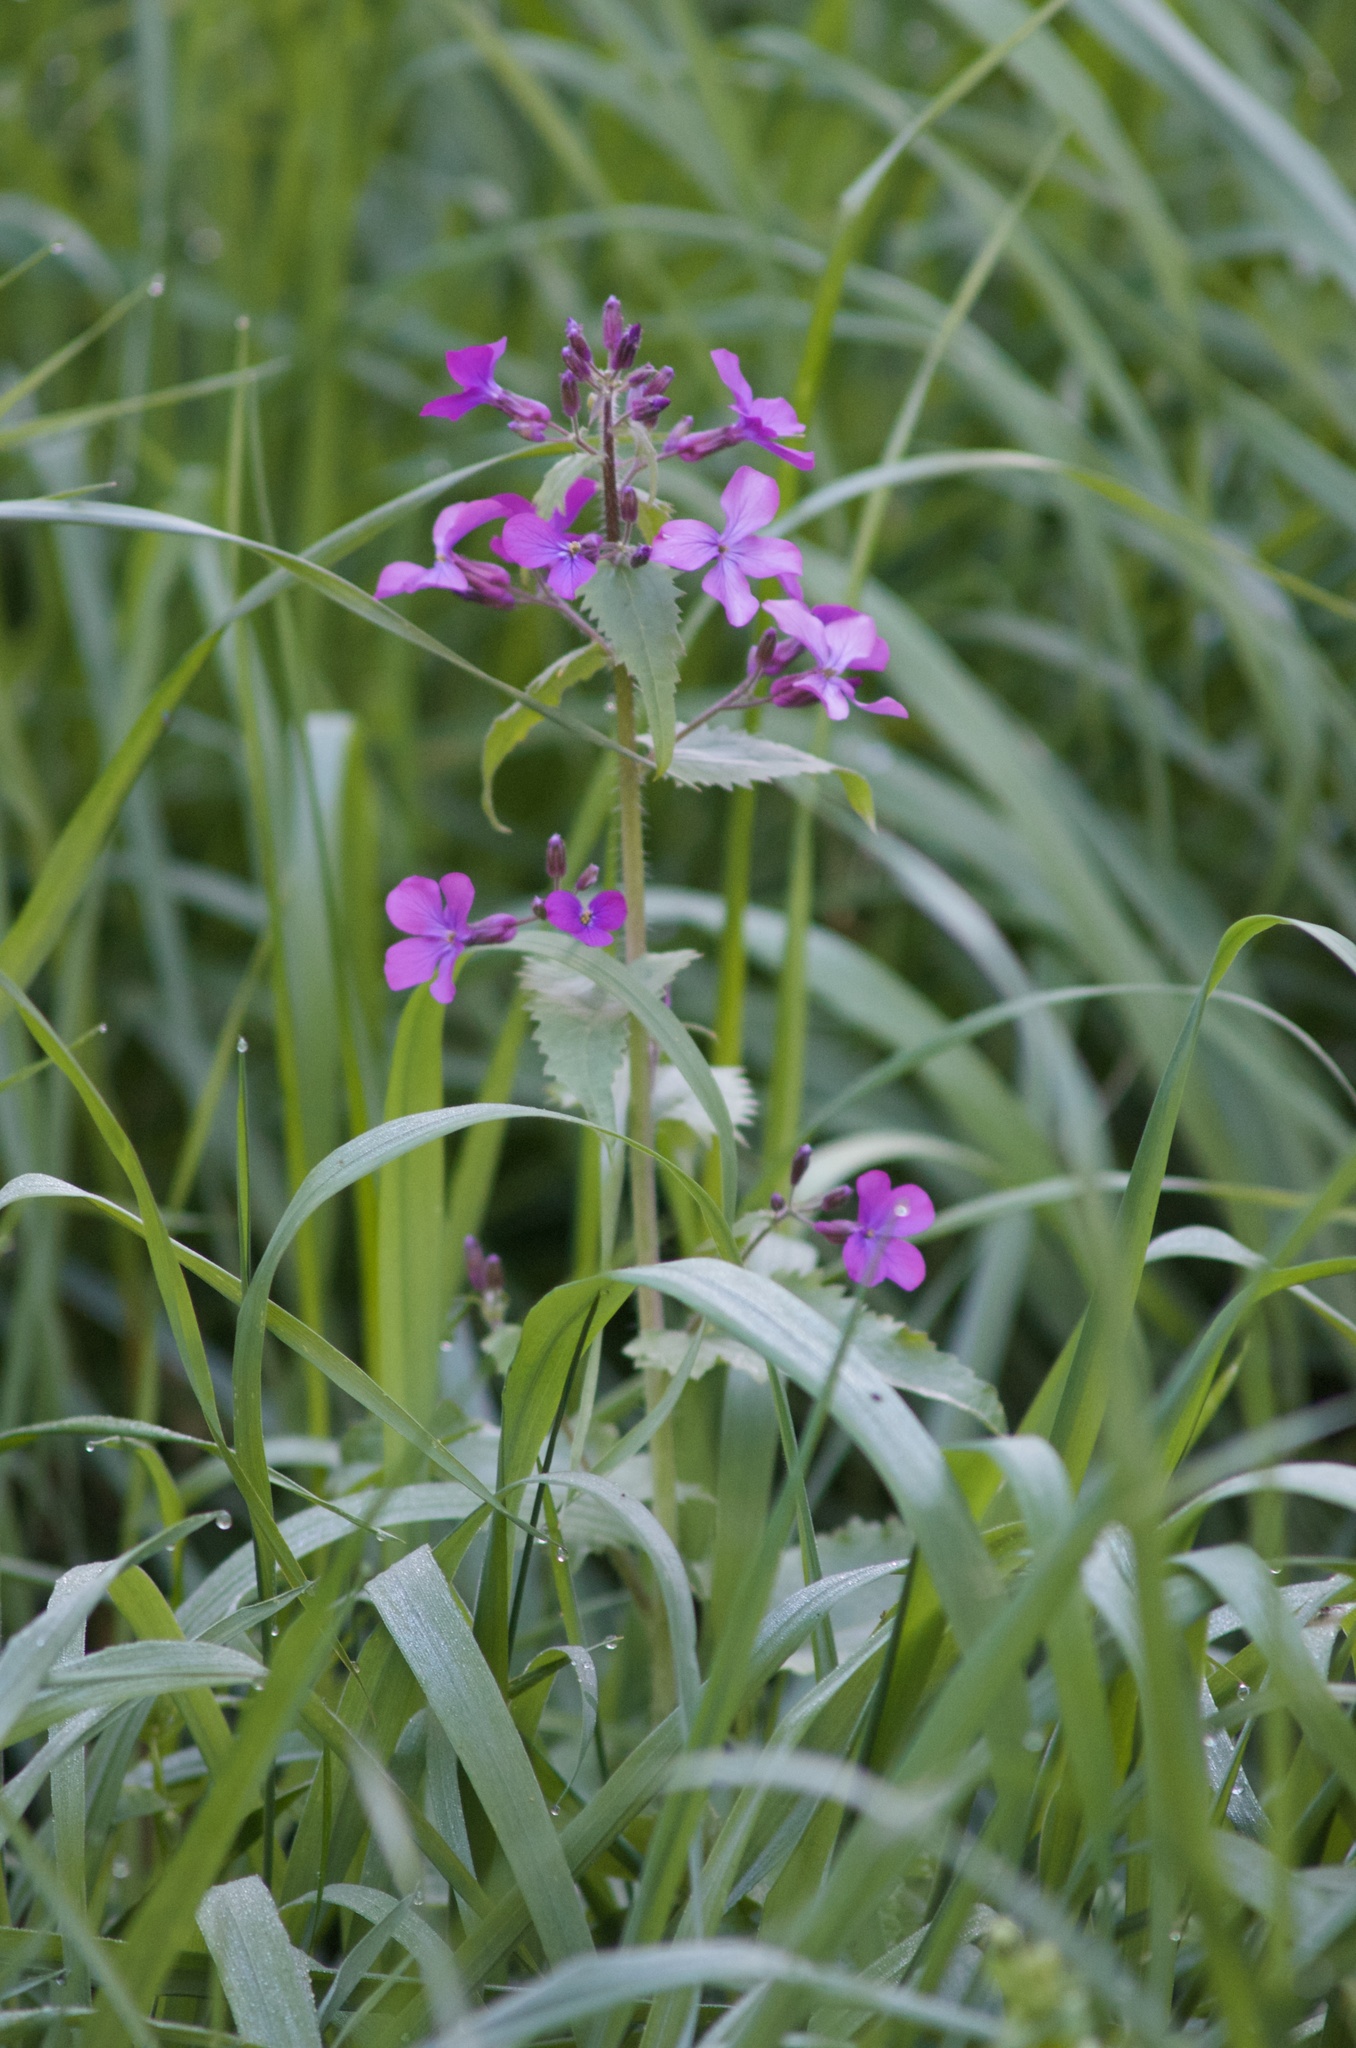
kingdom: Plantae
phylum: Tracheophyta
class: Magnoliopsida
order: Brassicales
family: Brassicaceae
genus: Lunaria
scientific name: Lunaria annua
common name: Honesty
